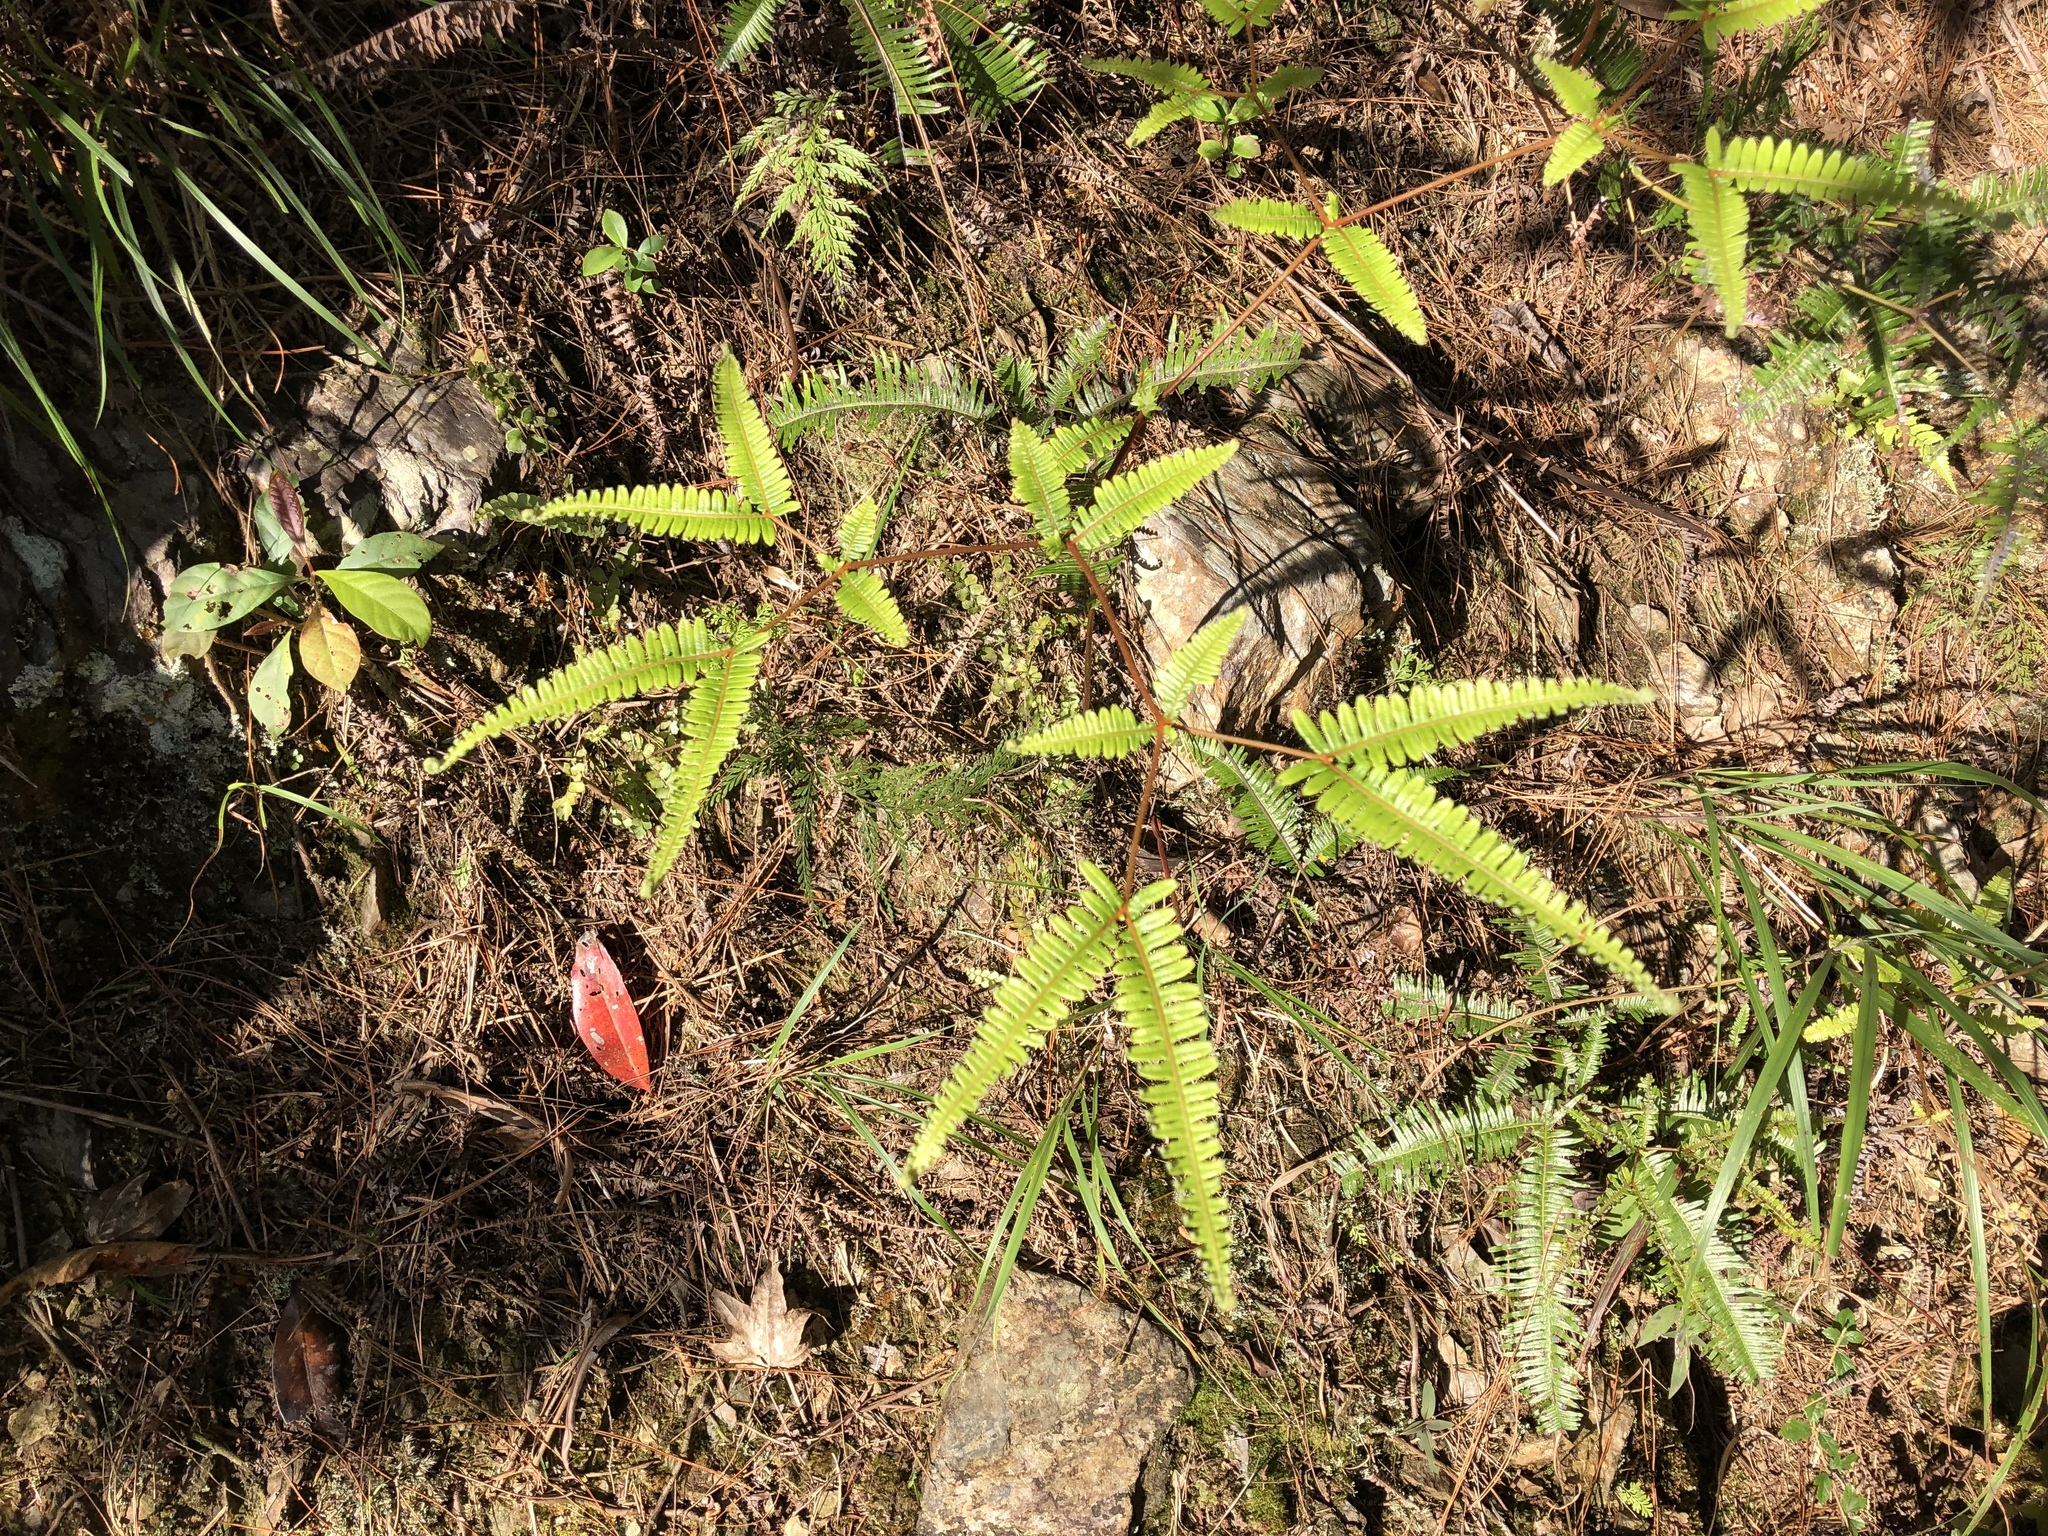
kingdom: Plantae
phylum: Tracheophyta
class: Polypodiopsida
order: Gleicheniales
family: Gleicheniaceae
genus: Dicranopteris
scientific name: Dicranopteris linearis
